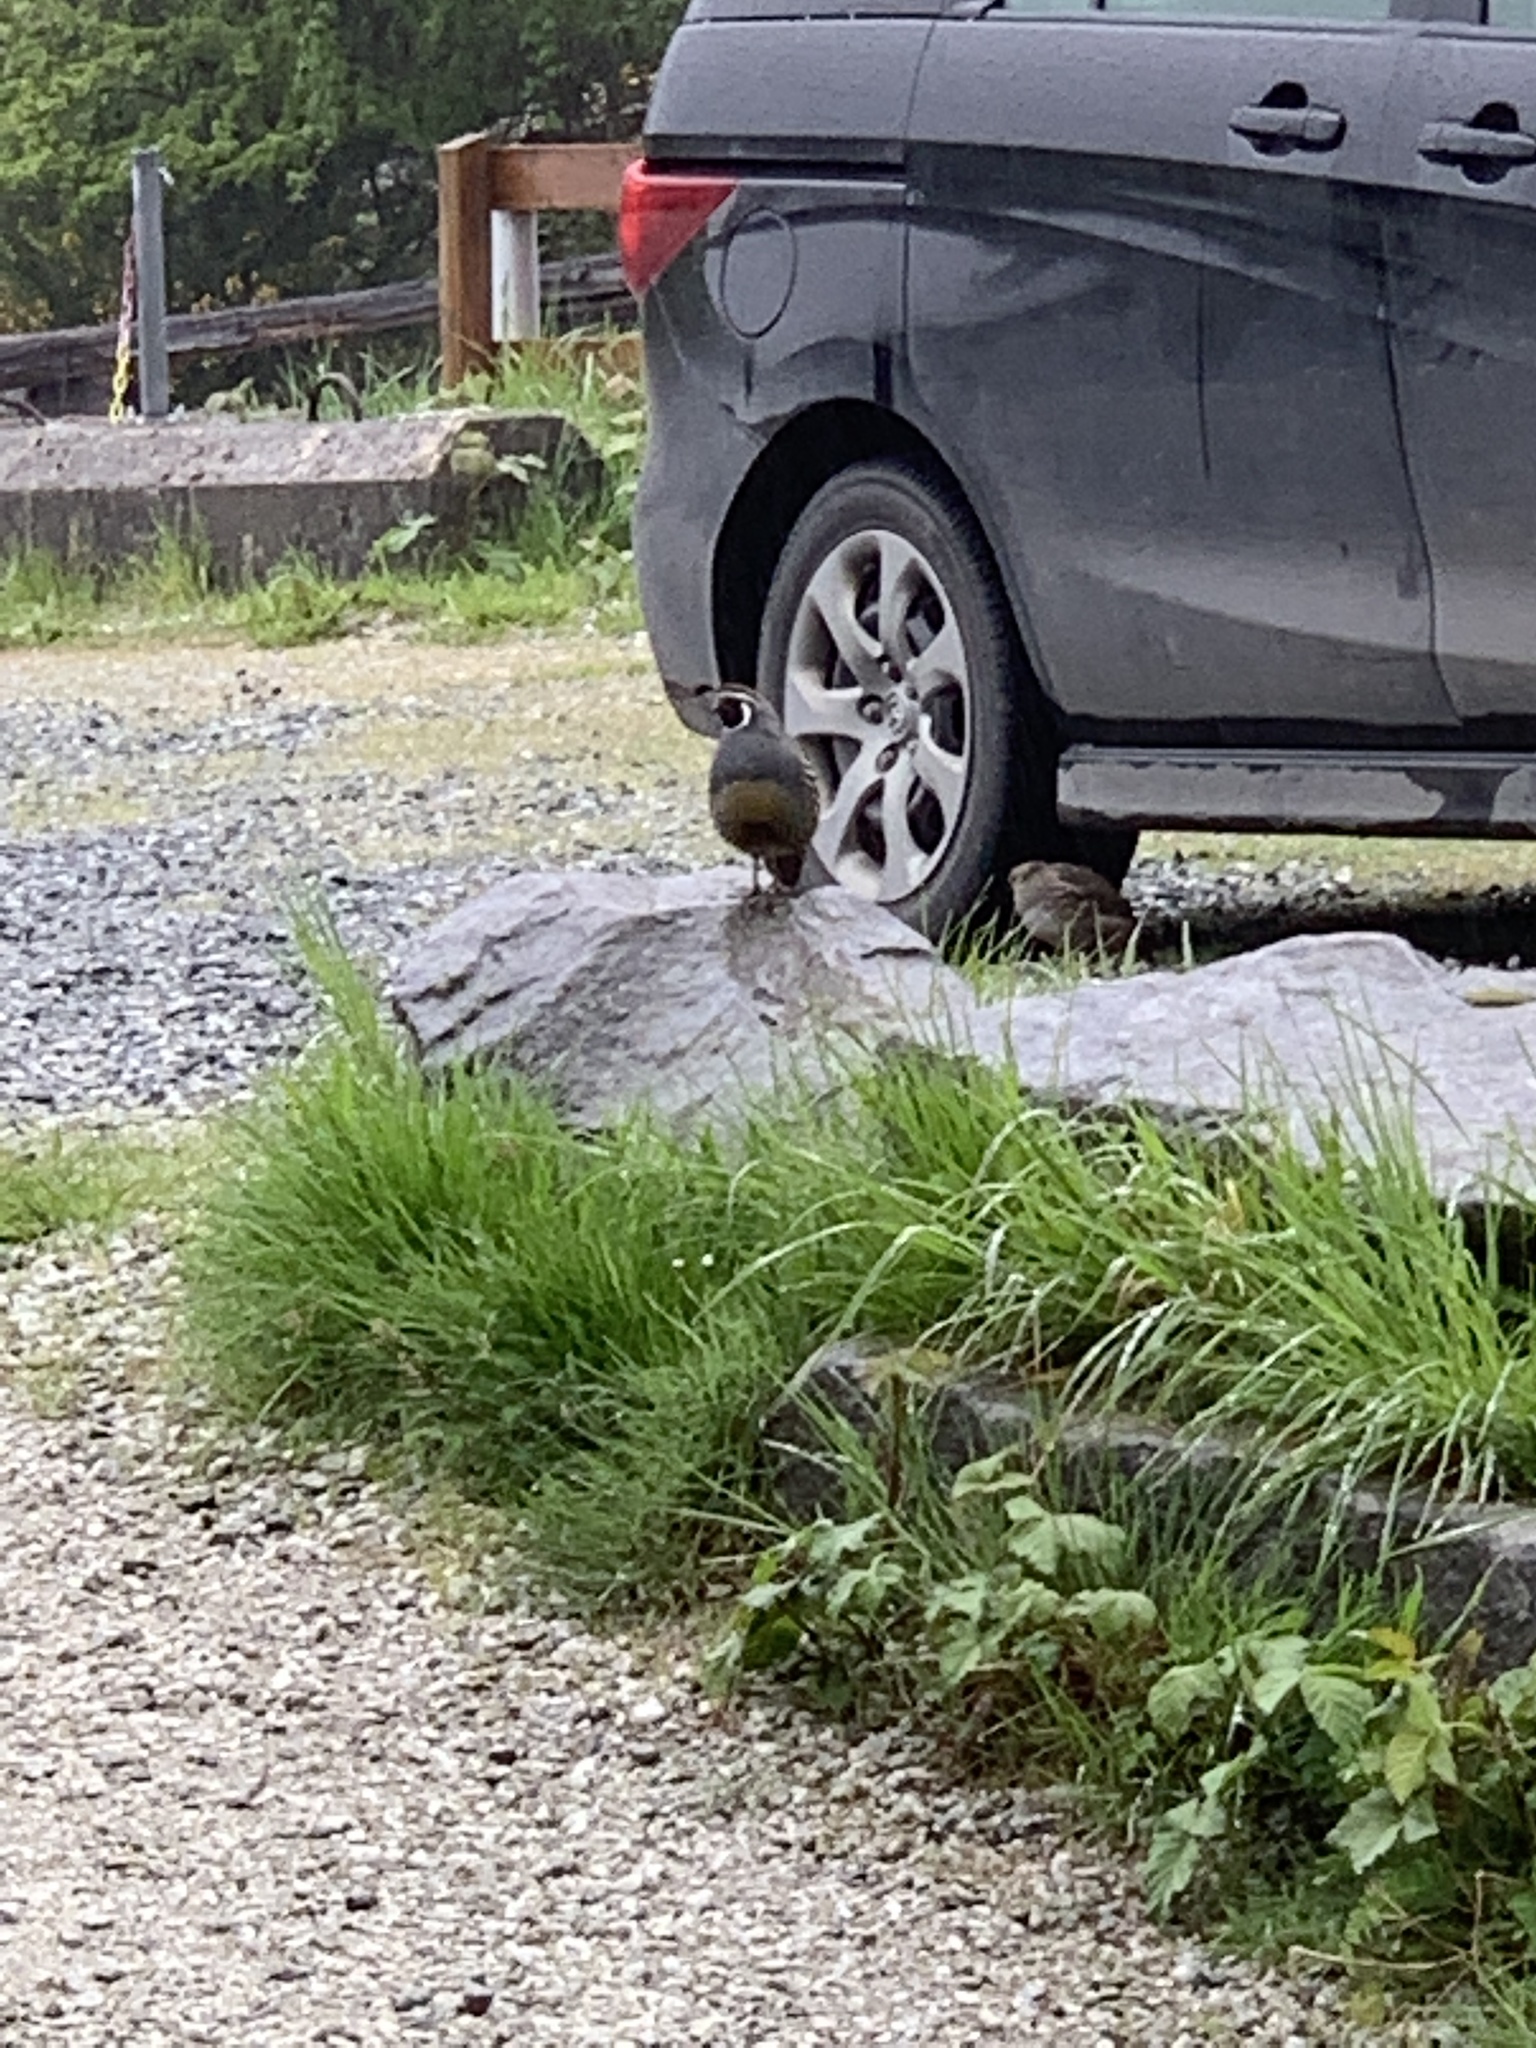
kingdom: Animalia
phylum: Chordata
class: Aves
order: Galliformes
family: Odontophoridae
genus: Callipepla
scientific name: Callipepla californica
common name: California quail
